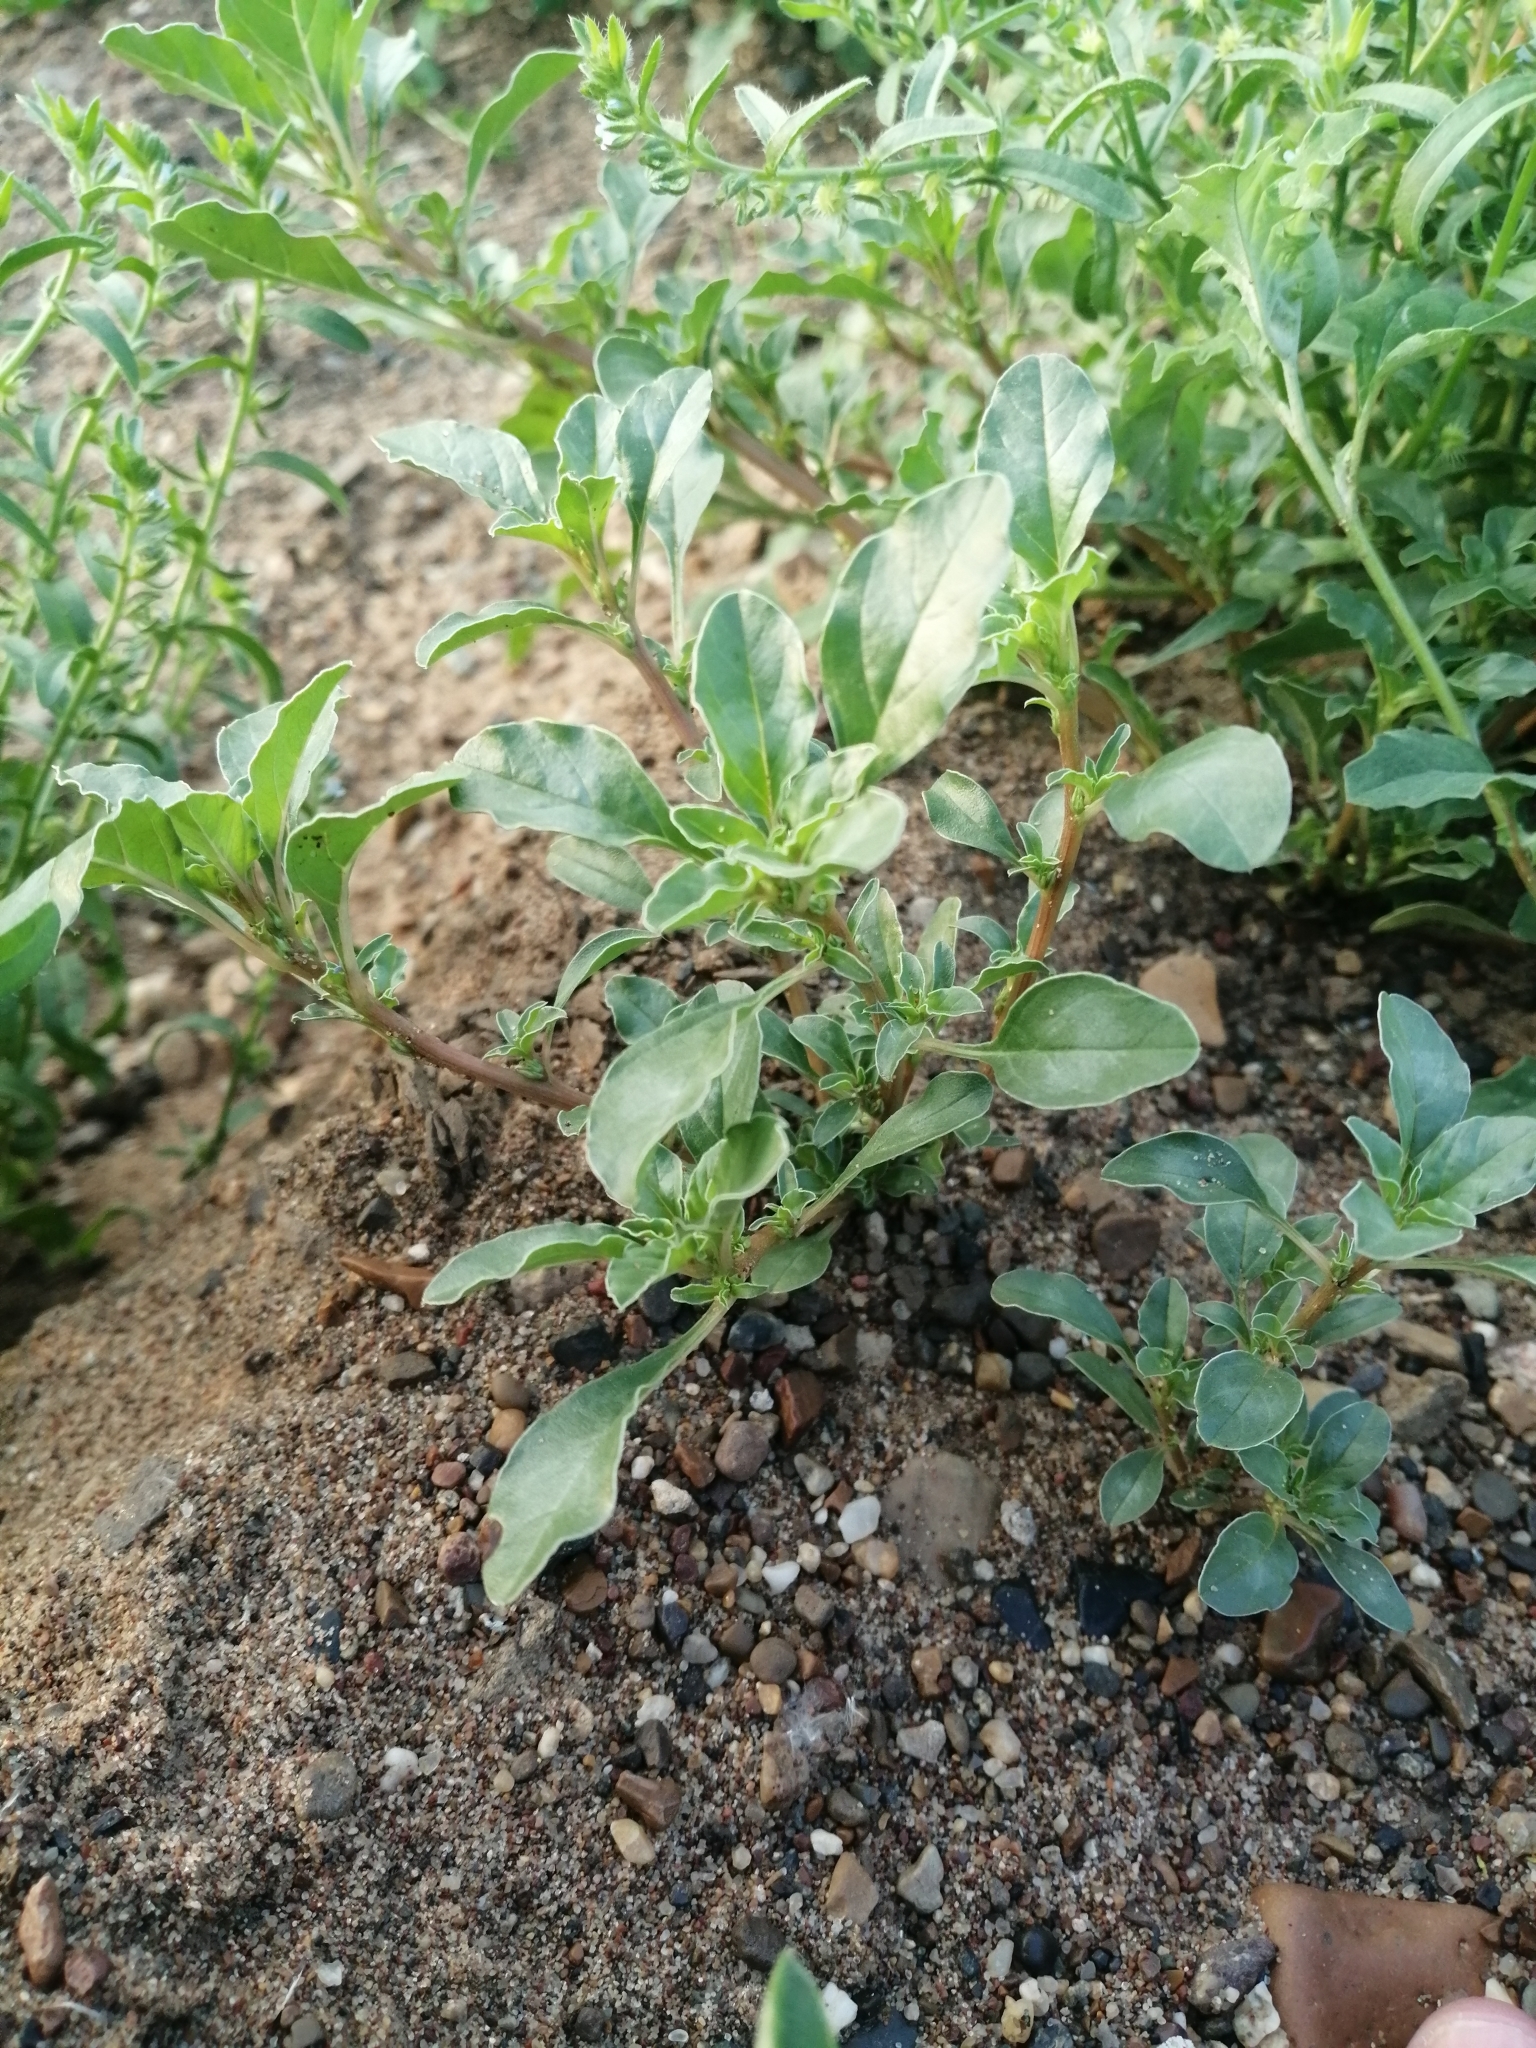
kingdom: Plantae
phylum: Tracheophyta
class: Magnoliopsida
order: Caryophyllales
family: Amaranthaceae
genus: Amaranthus
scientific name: Amaranthus blitoides
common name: Prostrate pigweed
